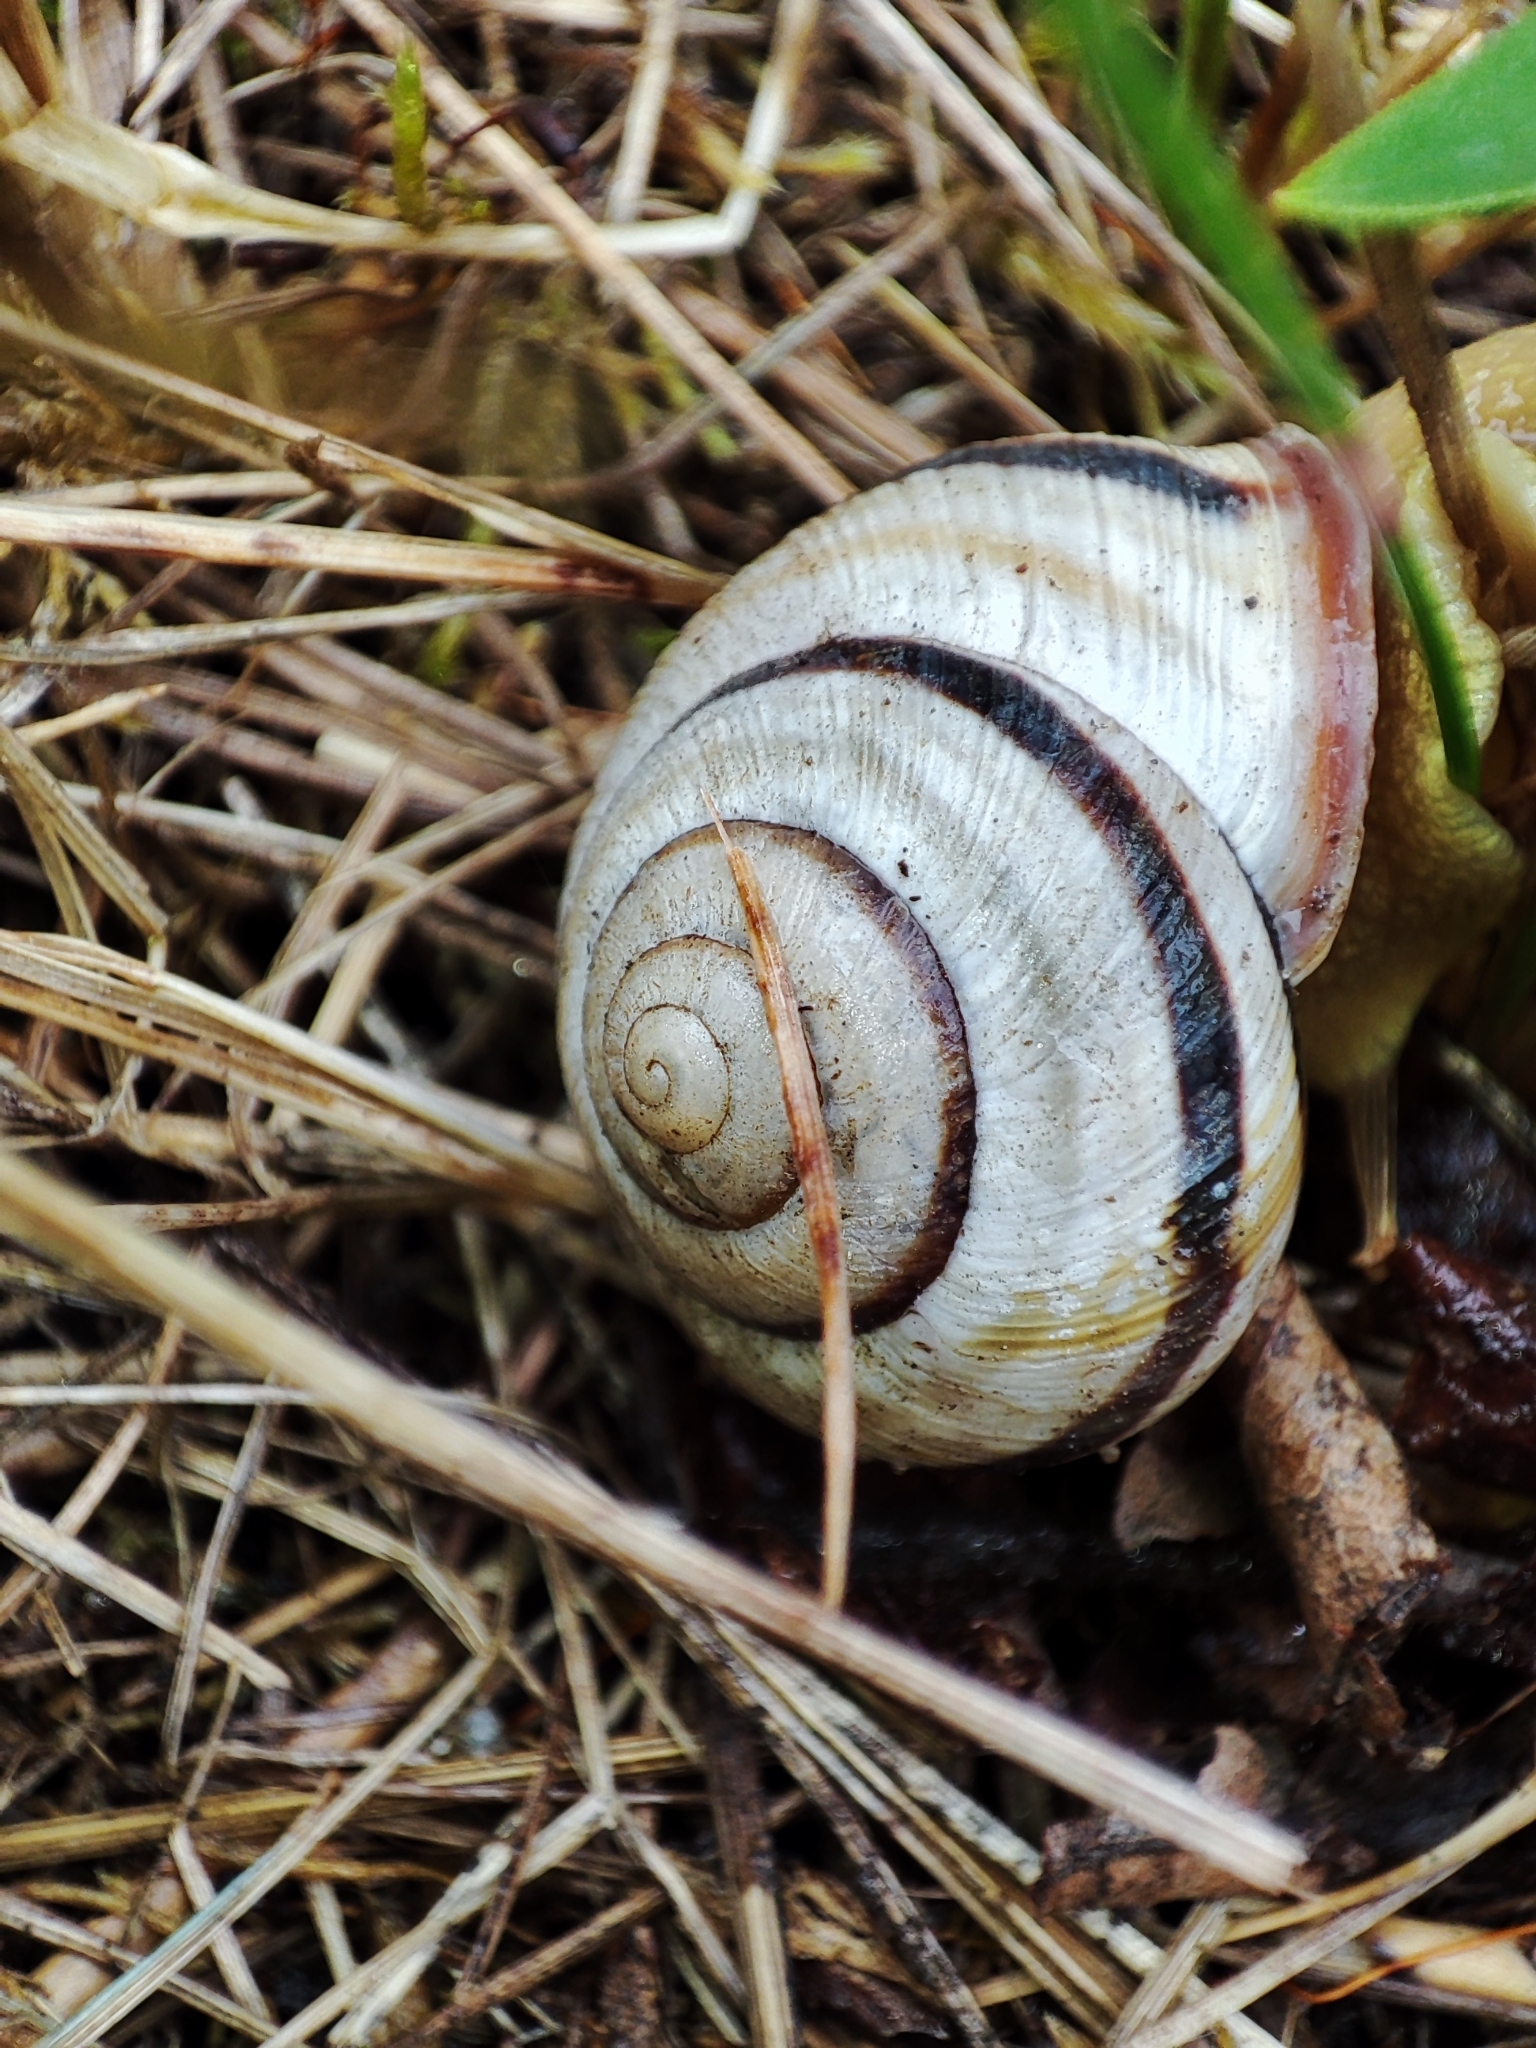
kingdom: Animalia
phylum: Mollusca
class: Gastropoda
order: Stylommatophora
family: Helicidae
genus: Caucasotachea
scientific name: Caucasotachea vindobonensis
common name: European helicid land snail
